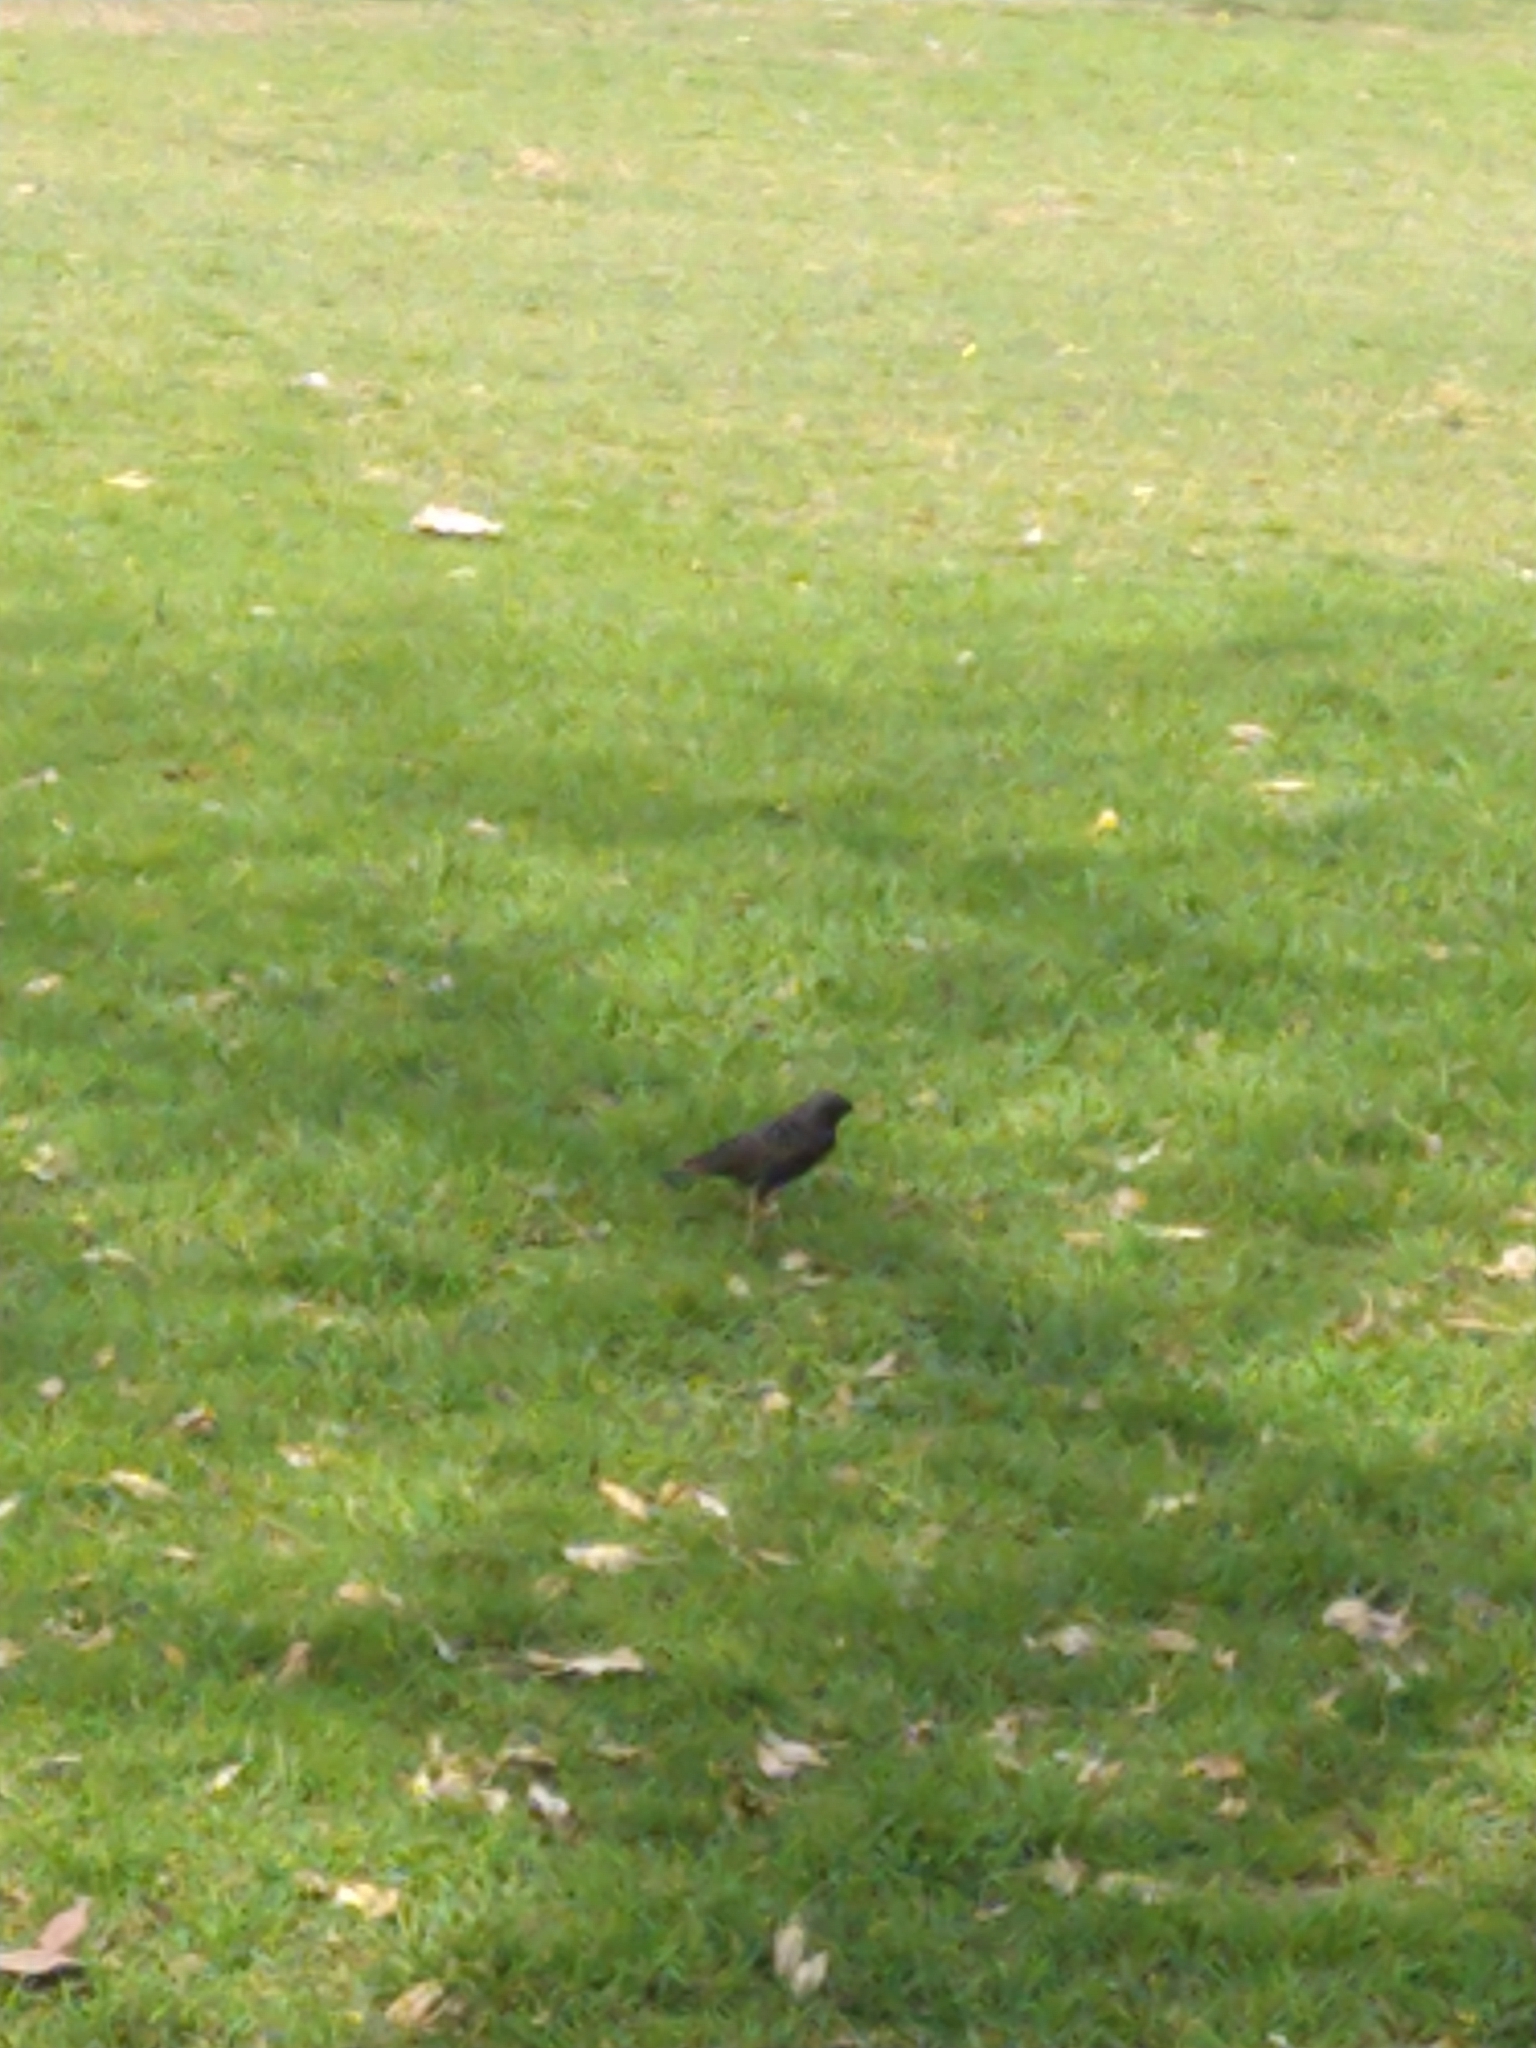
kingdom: Animalia
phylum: Chordata
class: Aves
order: Passeriformes
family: Sturnidae
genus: Sturnus
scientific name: Sturnus vulgaris
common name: Common starling
